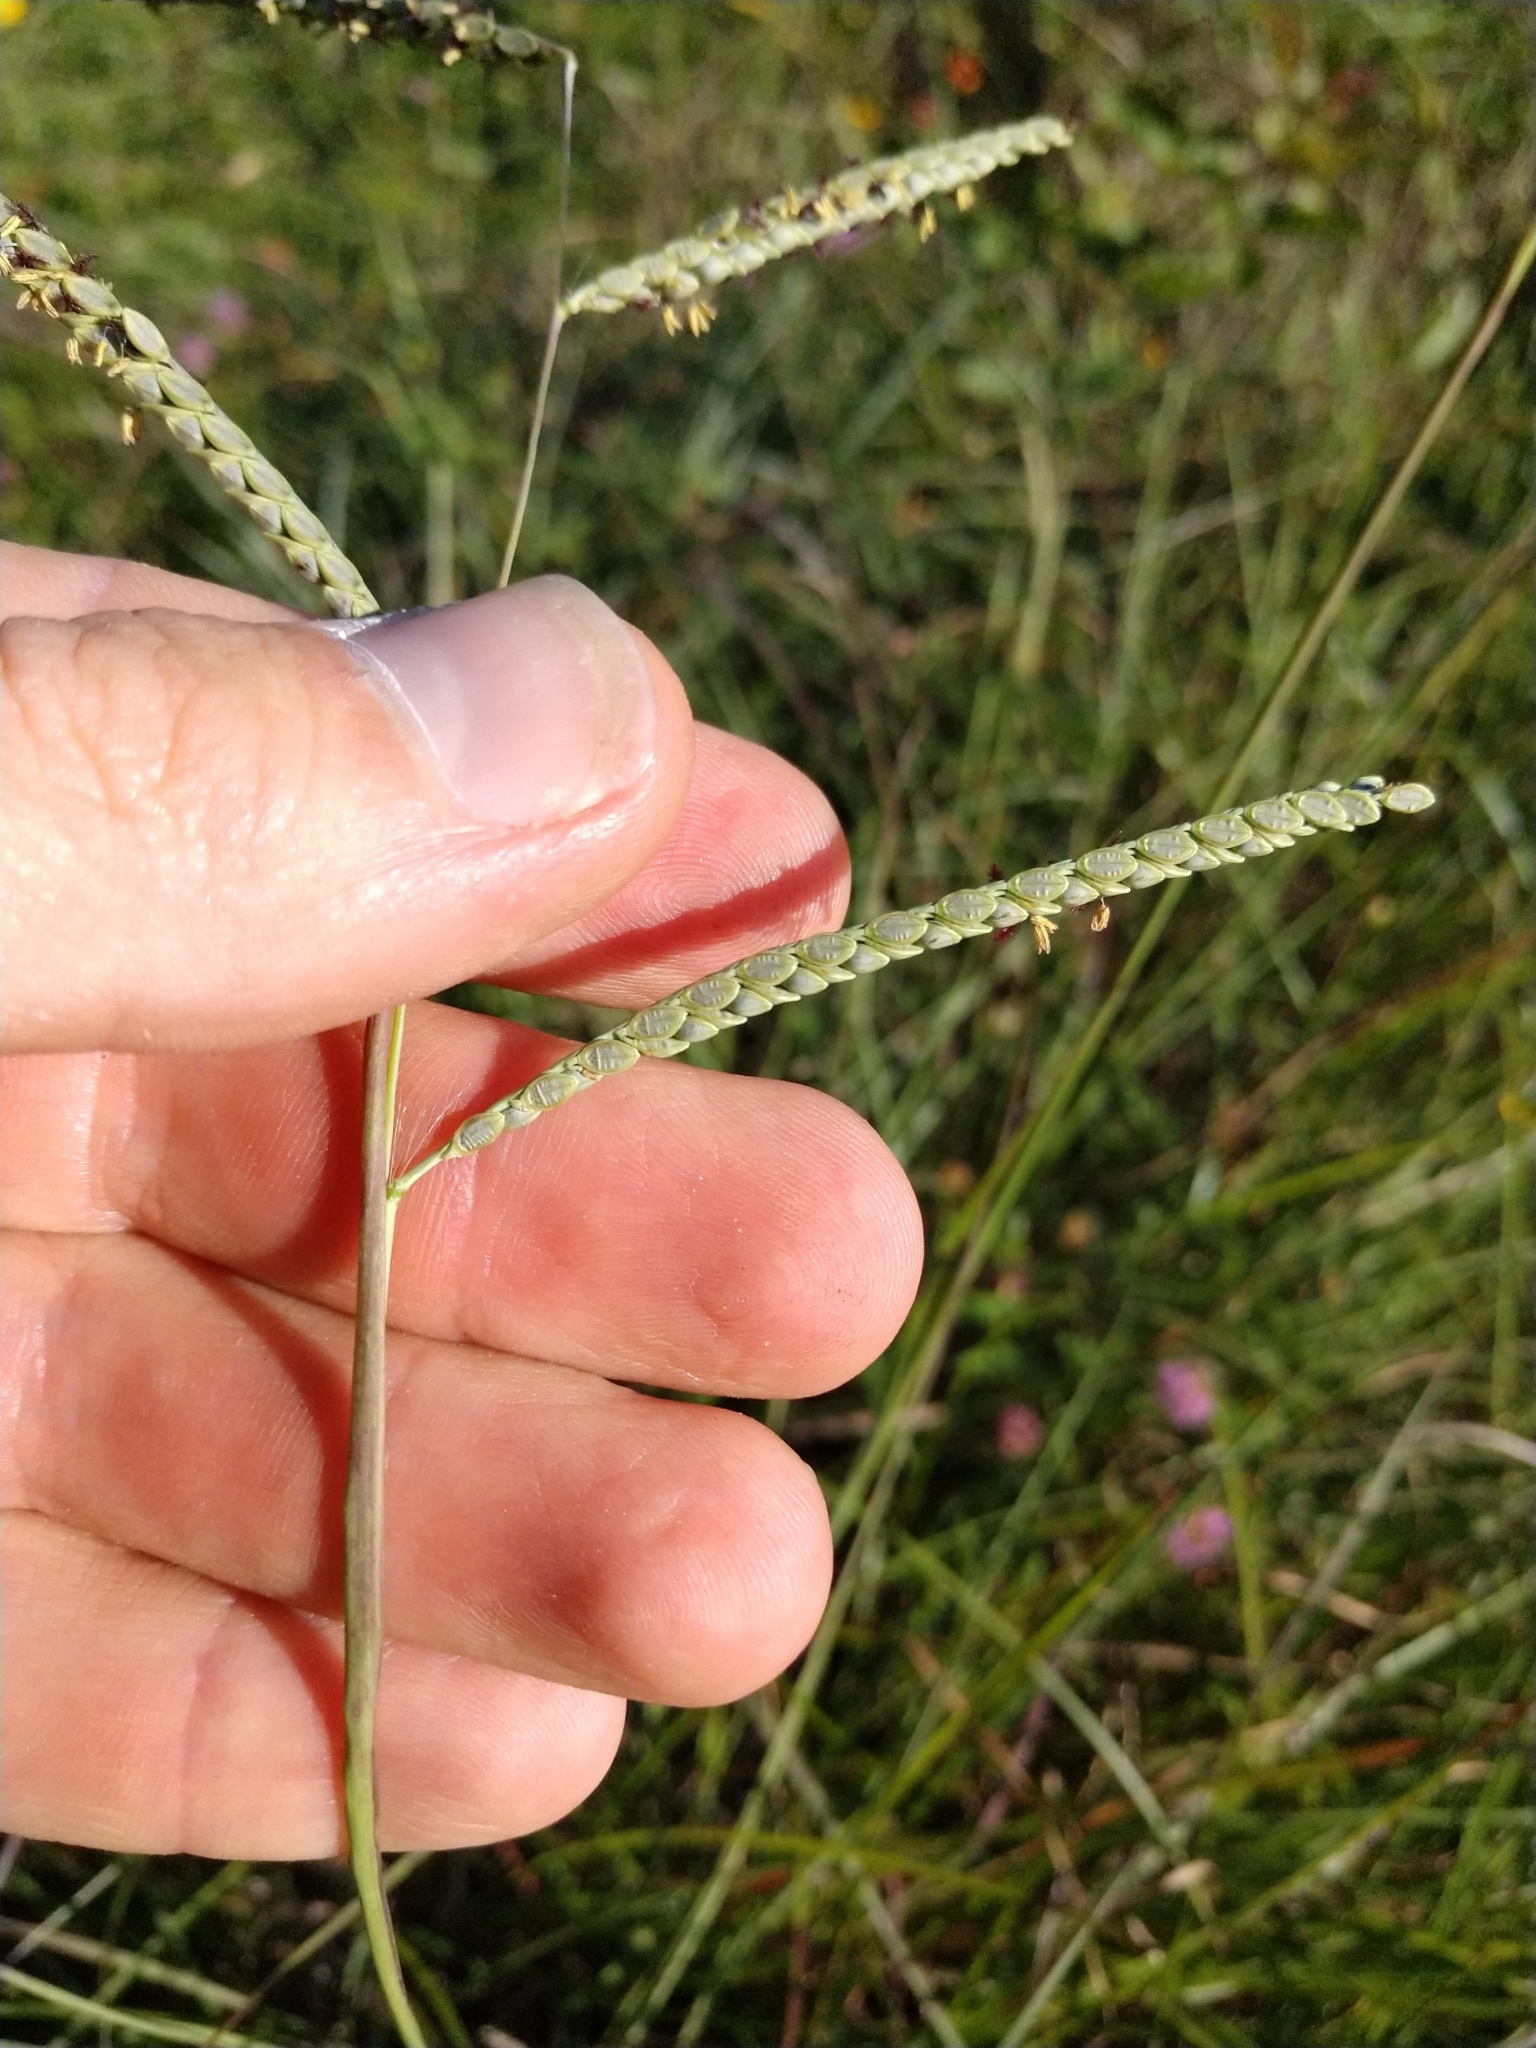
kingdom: Plantae
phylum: Tracheophyta
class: Liliopsida
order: Poales
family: Poaceae
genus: Paspalum
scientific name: Paspalum plicatulum
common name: Top paspalum
